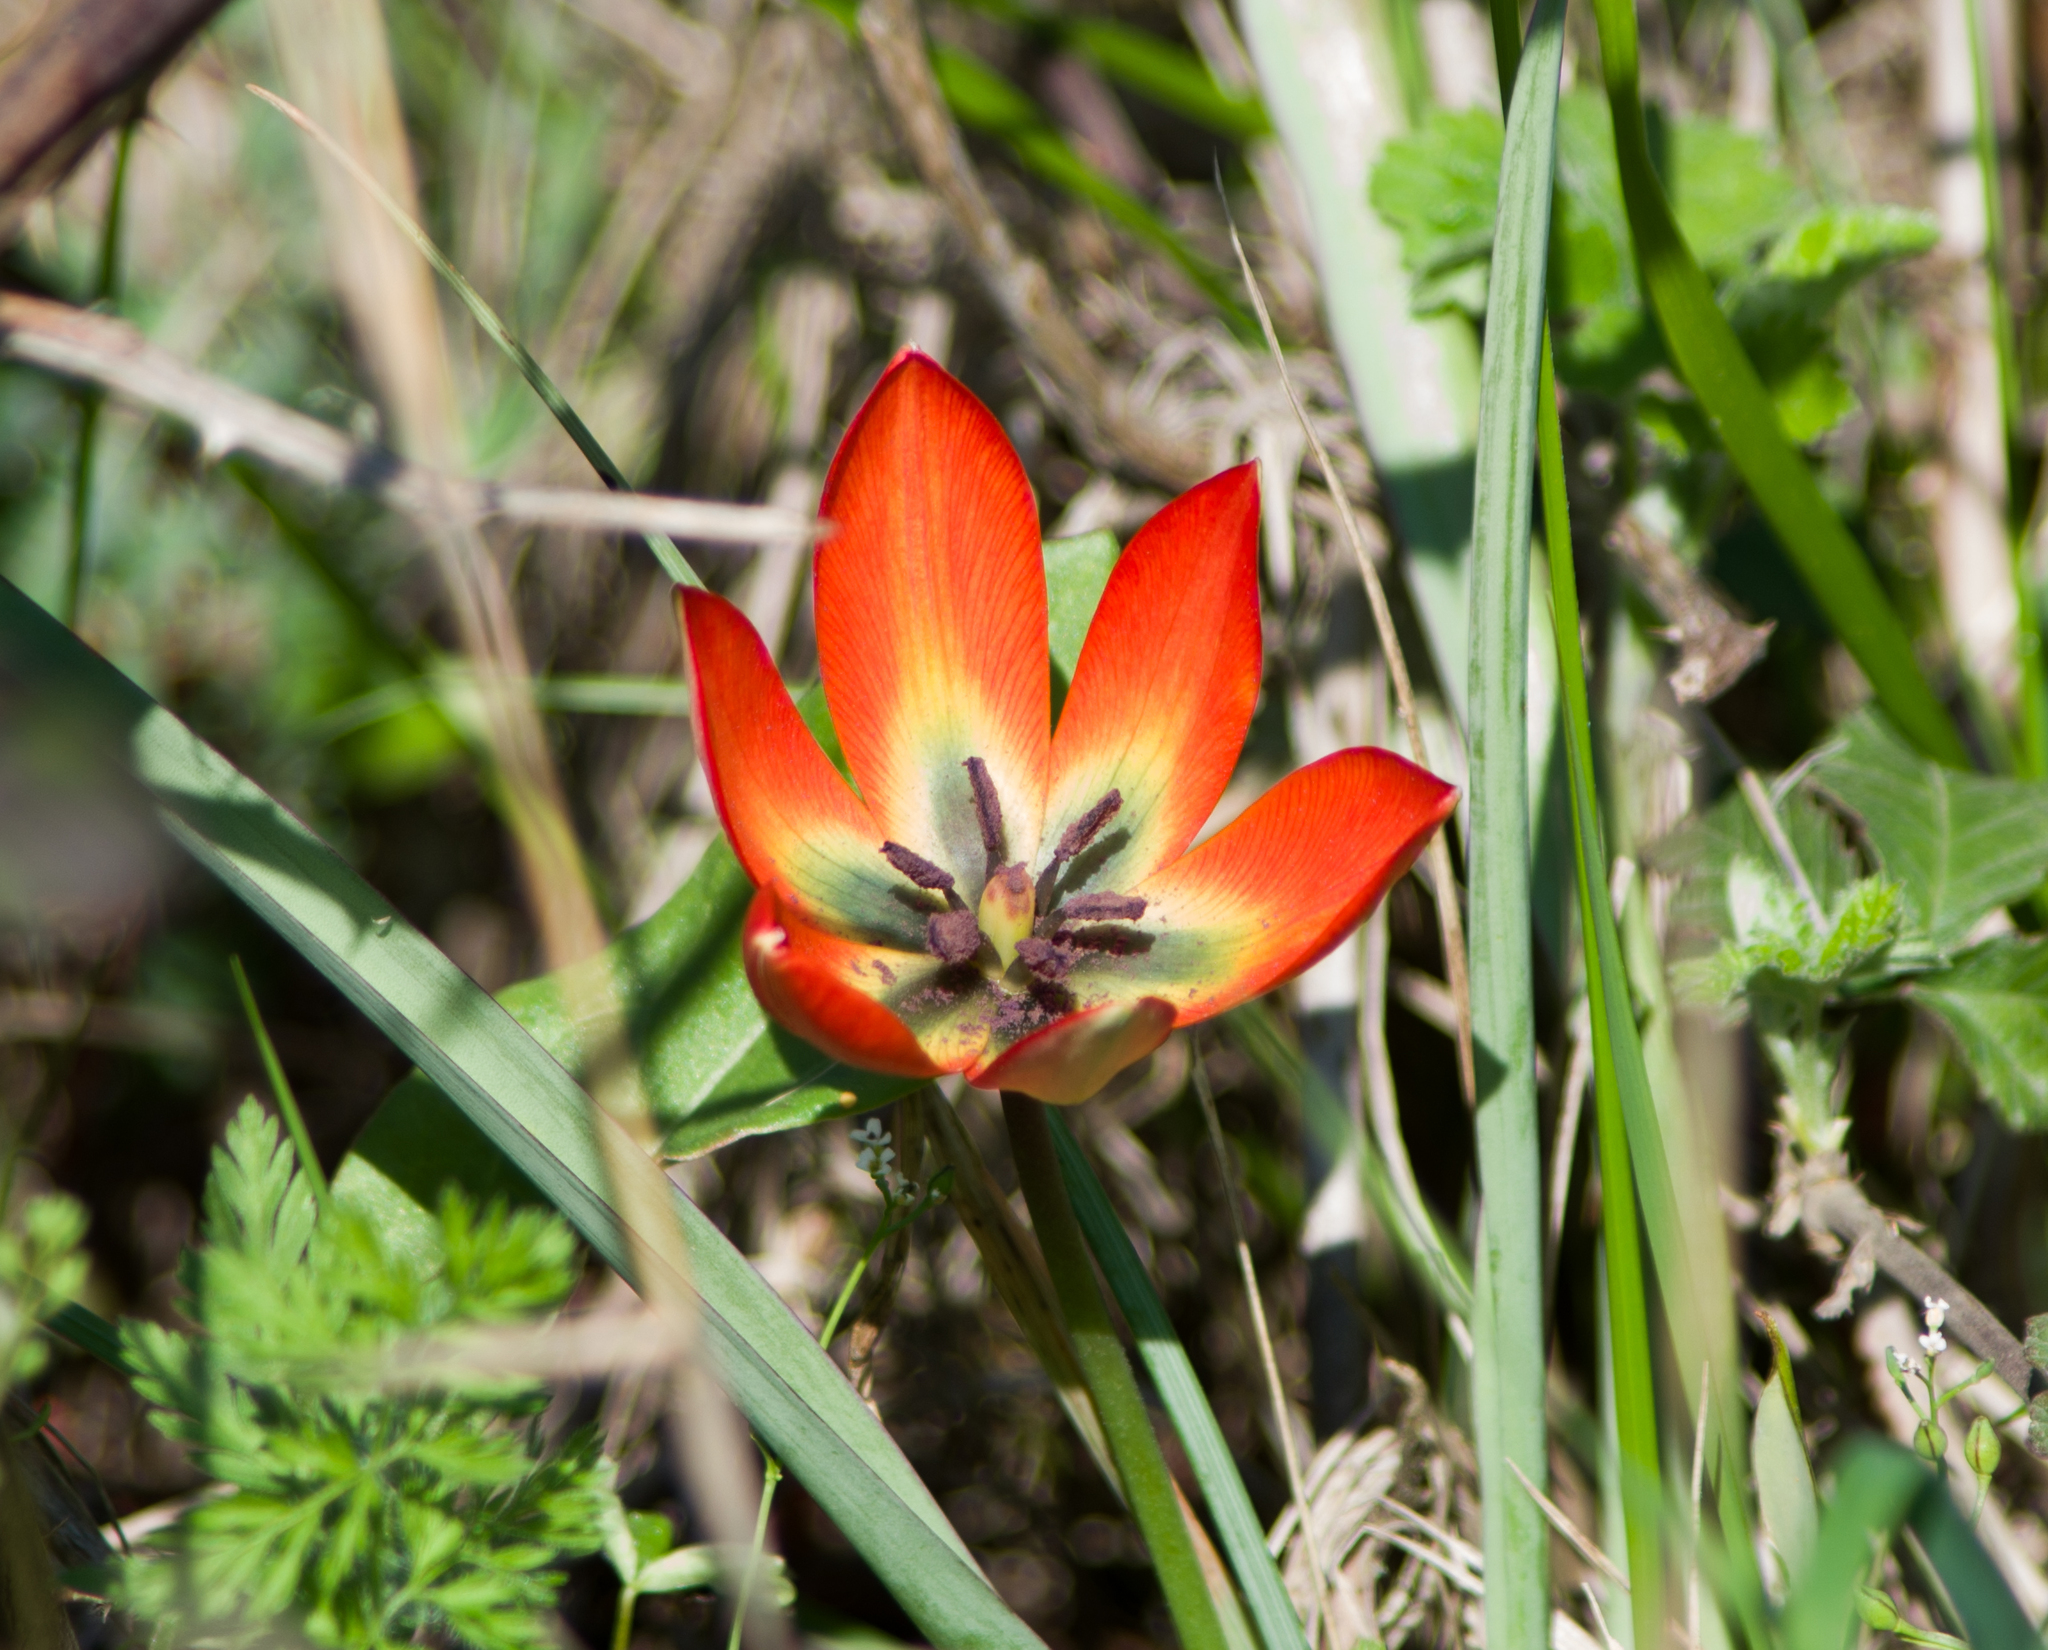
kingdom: Plantae
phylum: Tracheophyta
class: Liliopsida
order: Liliales
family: Liliaceae
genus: Tulipa
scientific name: Tulipa orphanidea
